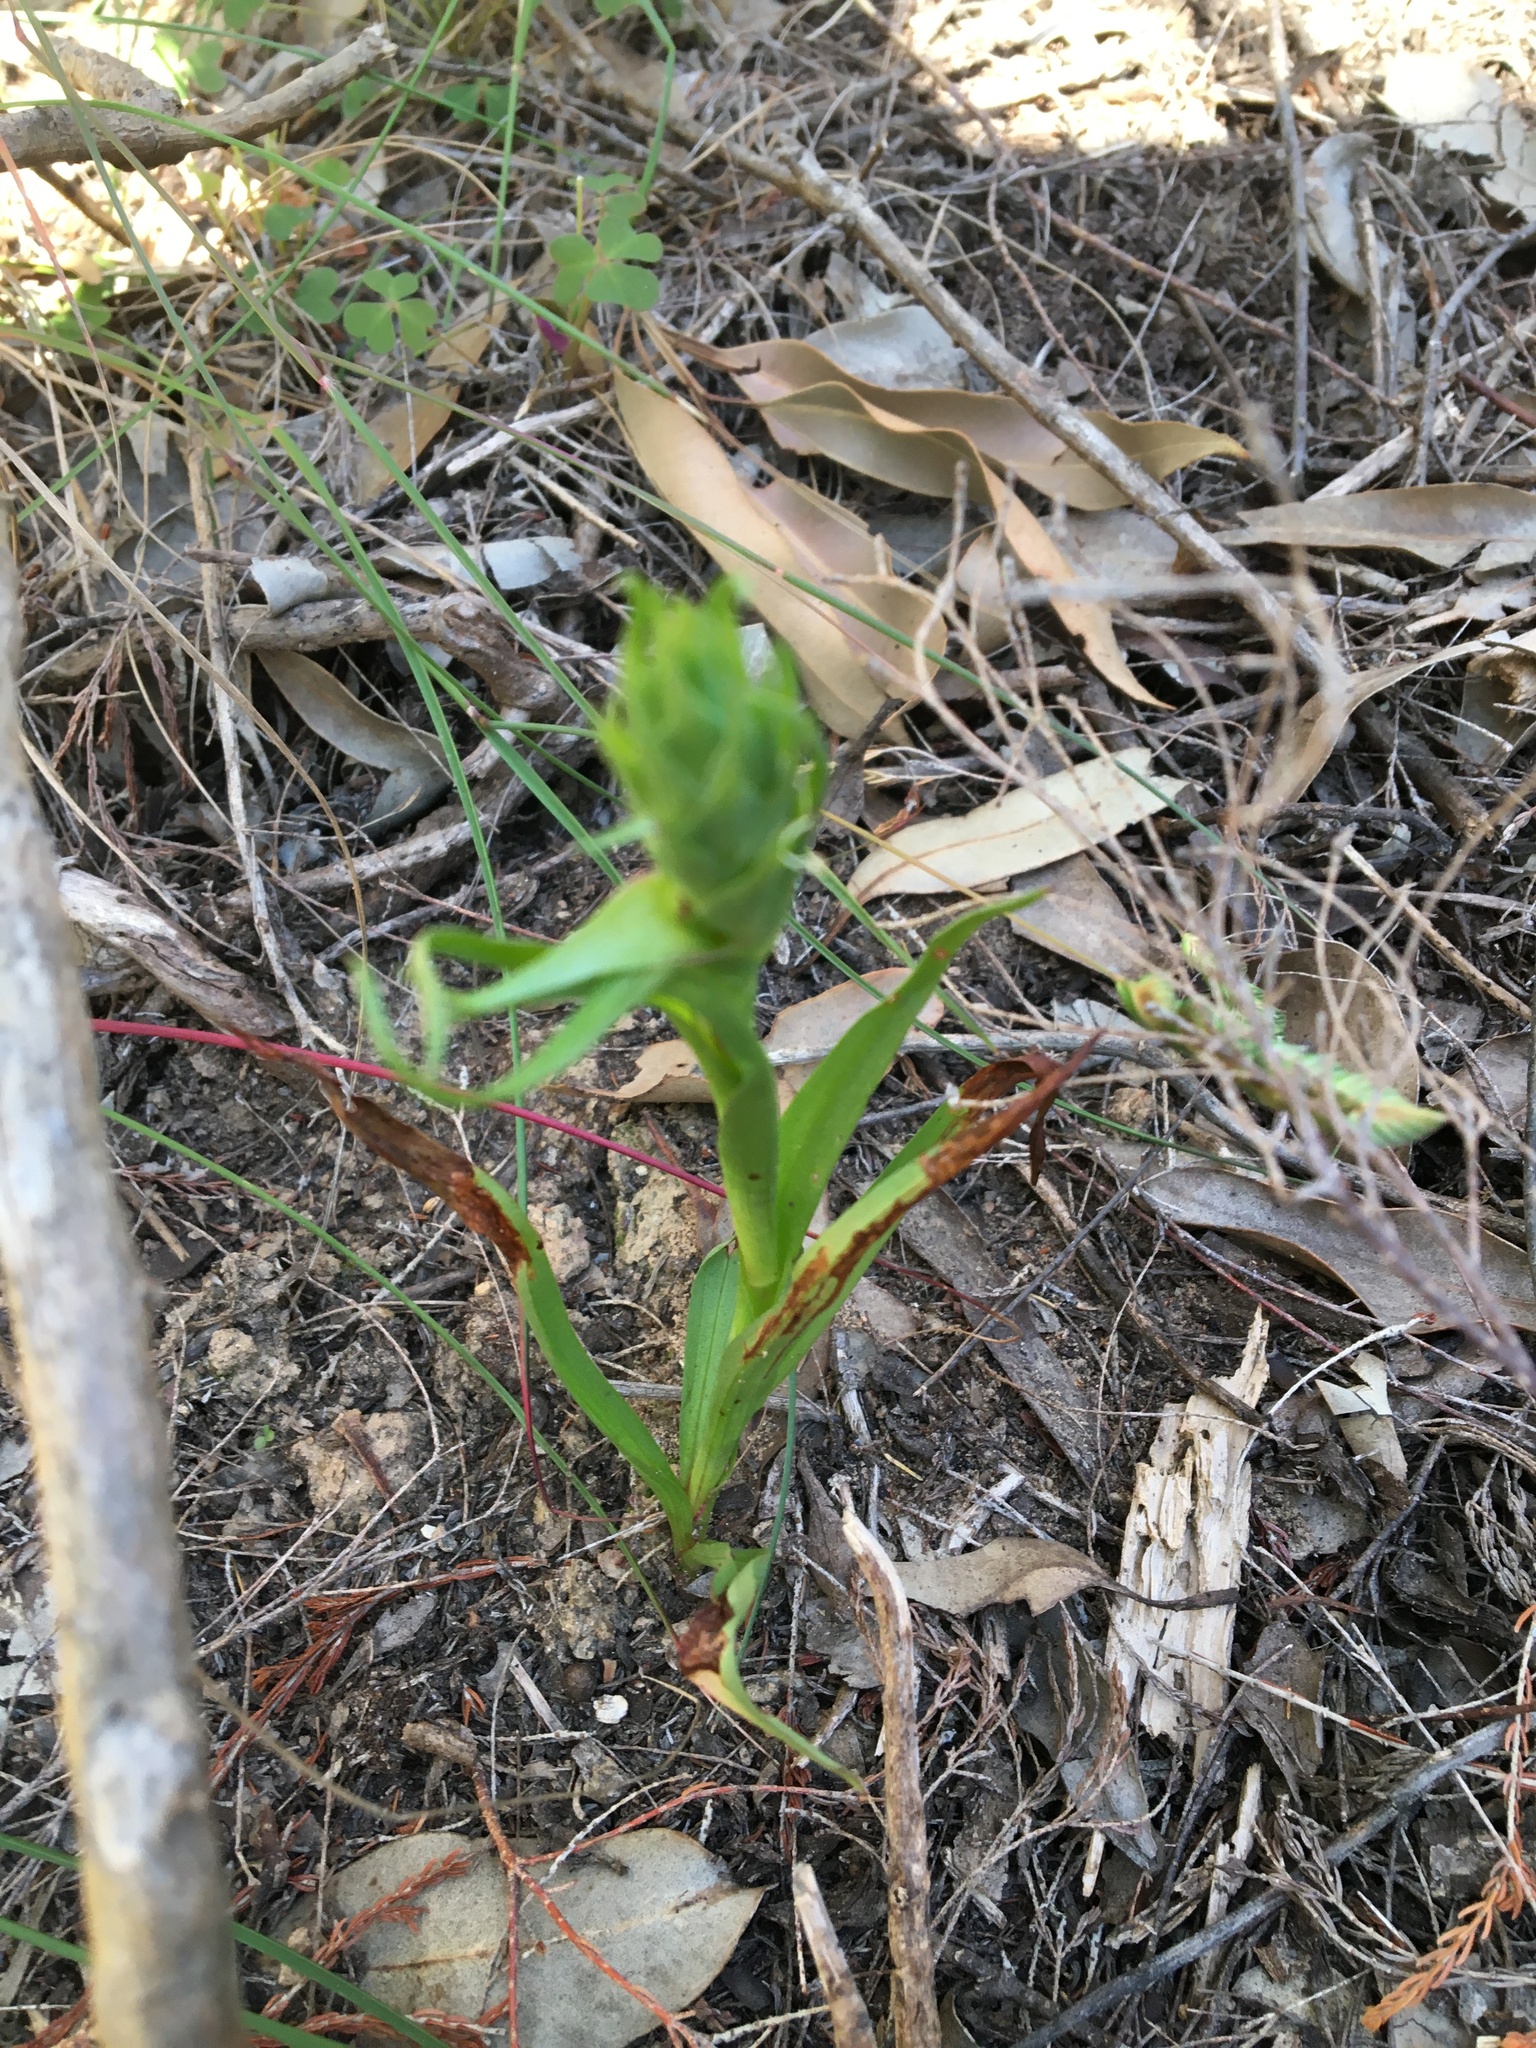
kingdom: Plantae
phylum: Tracheophyta
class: Liliopsida
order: Asparagales
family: Orchidaceae
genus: Disa
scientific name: Disa bracteata
